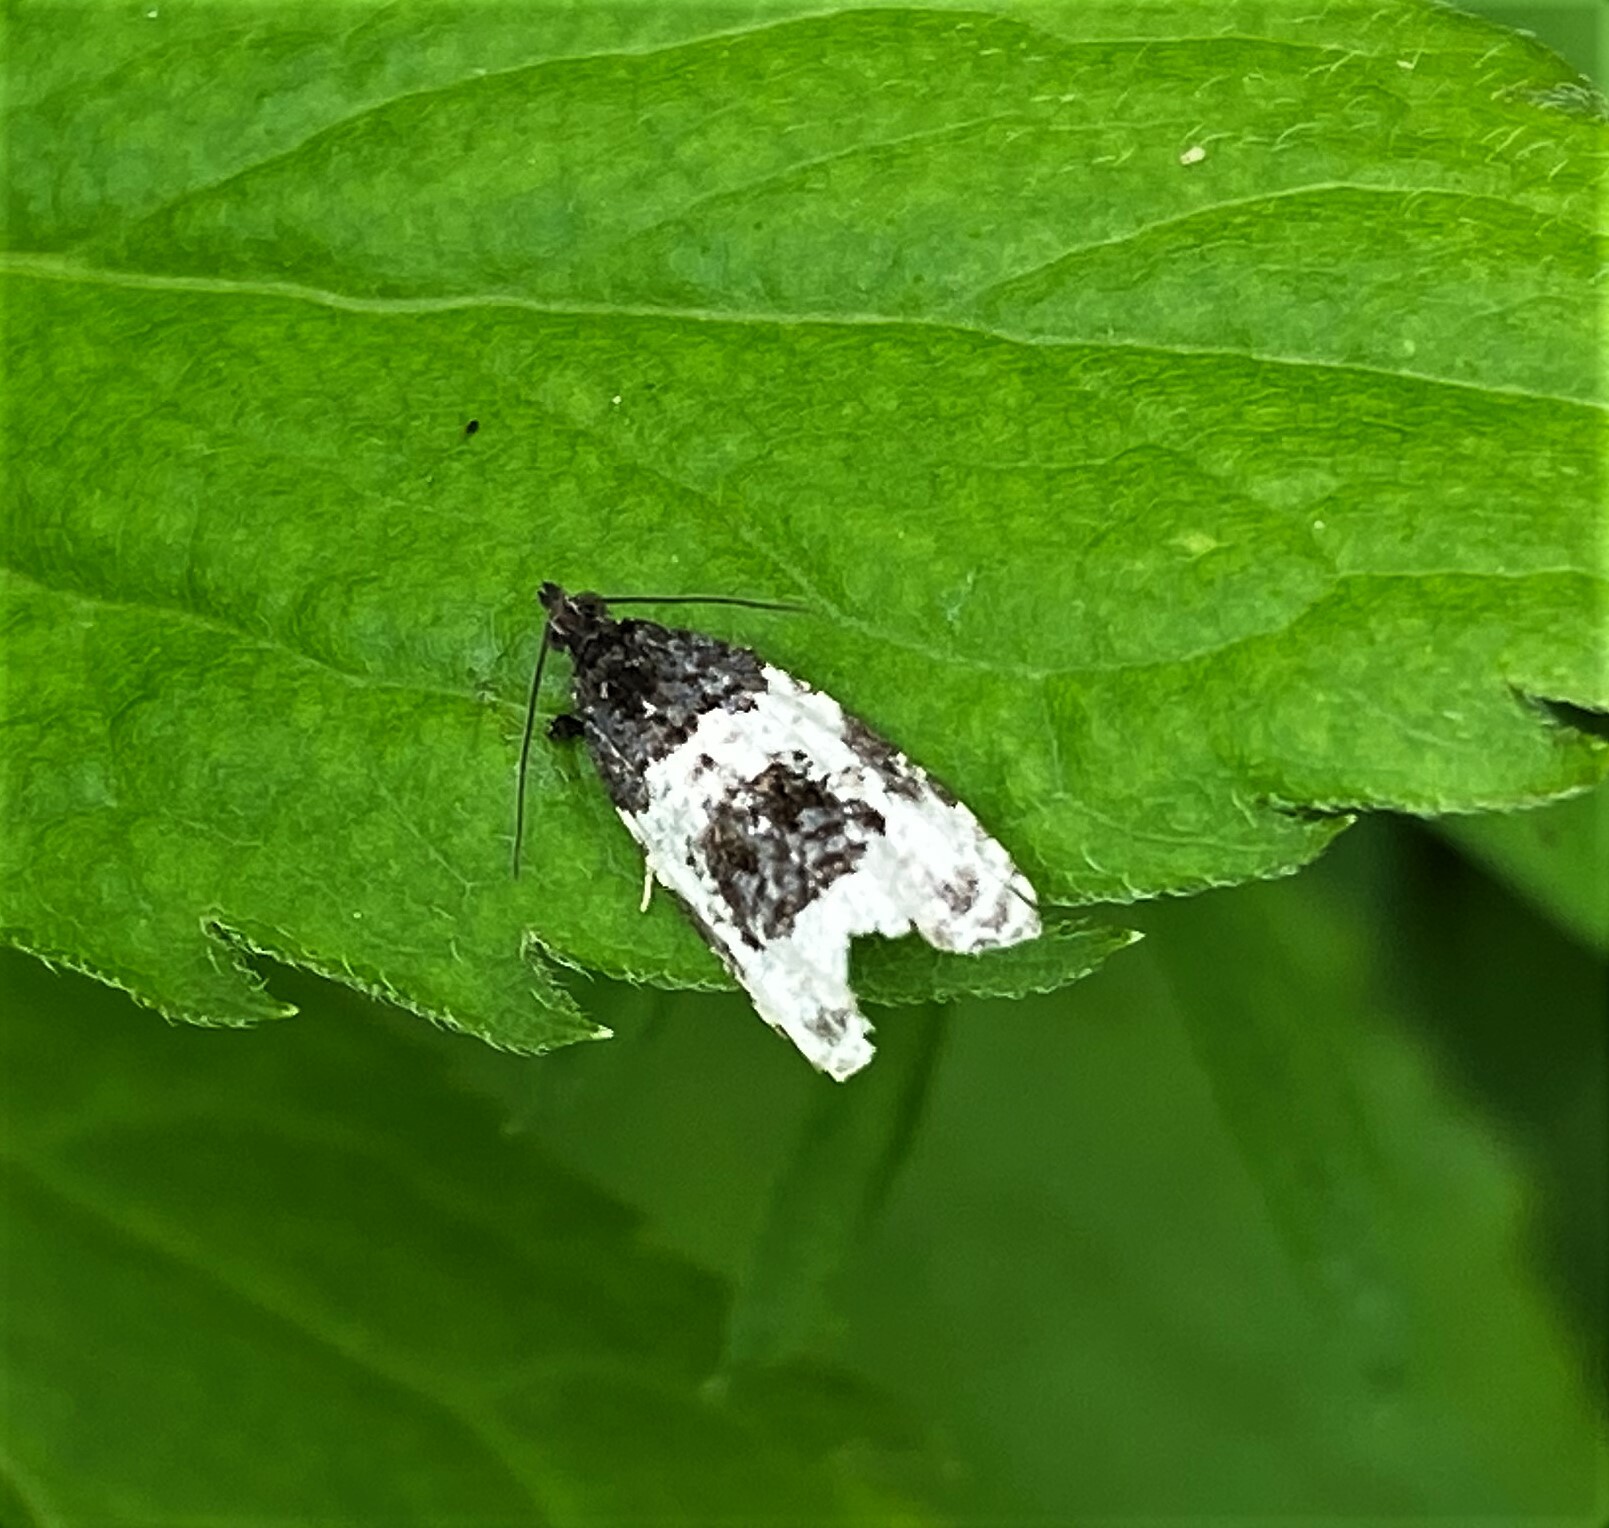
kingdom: Animalia
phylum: Arthropoda
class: Insecta
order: Lepidoptera
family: Tortricidae
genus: Olethreutes
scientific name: Olethreutes bipartitana
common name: Divided olethreutes moth
